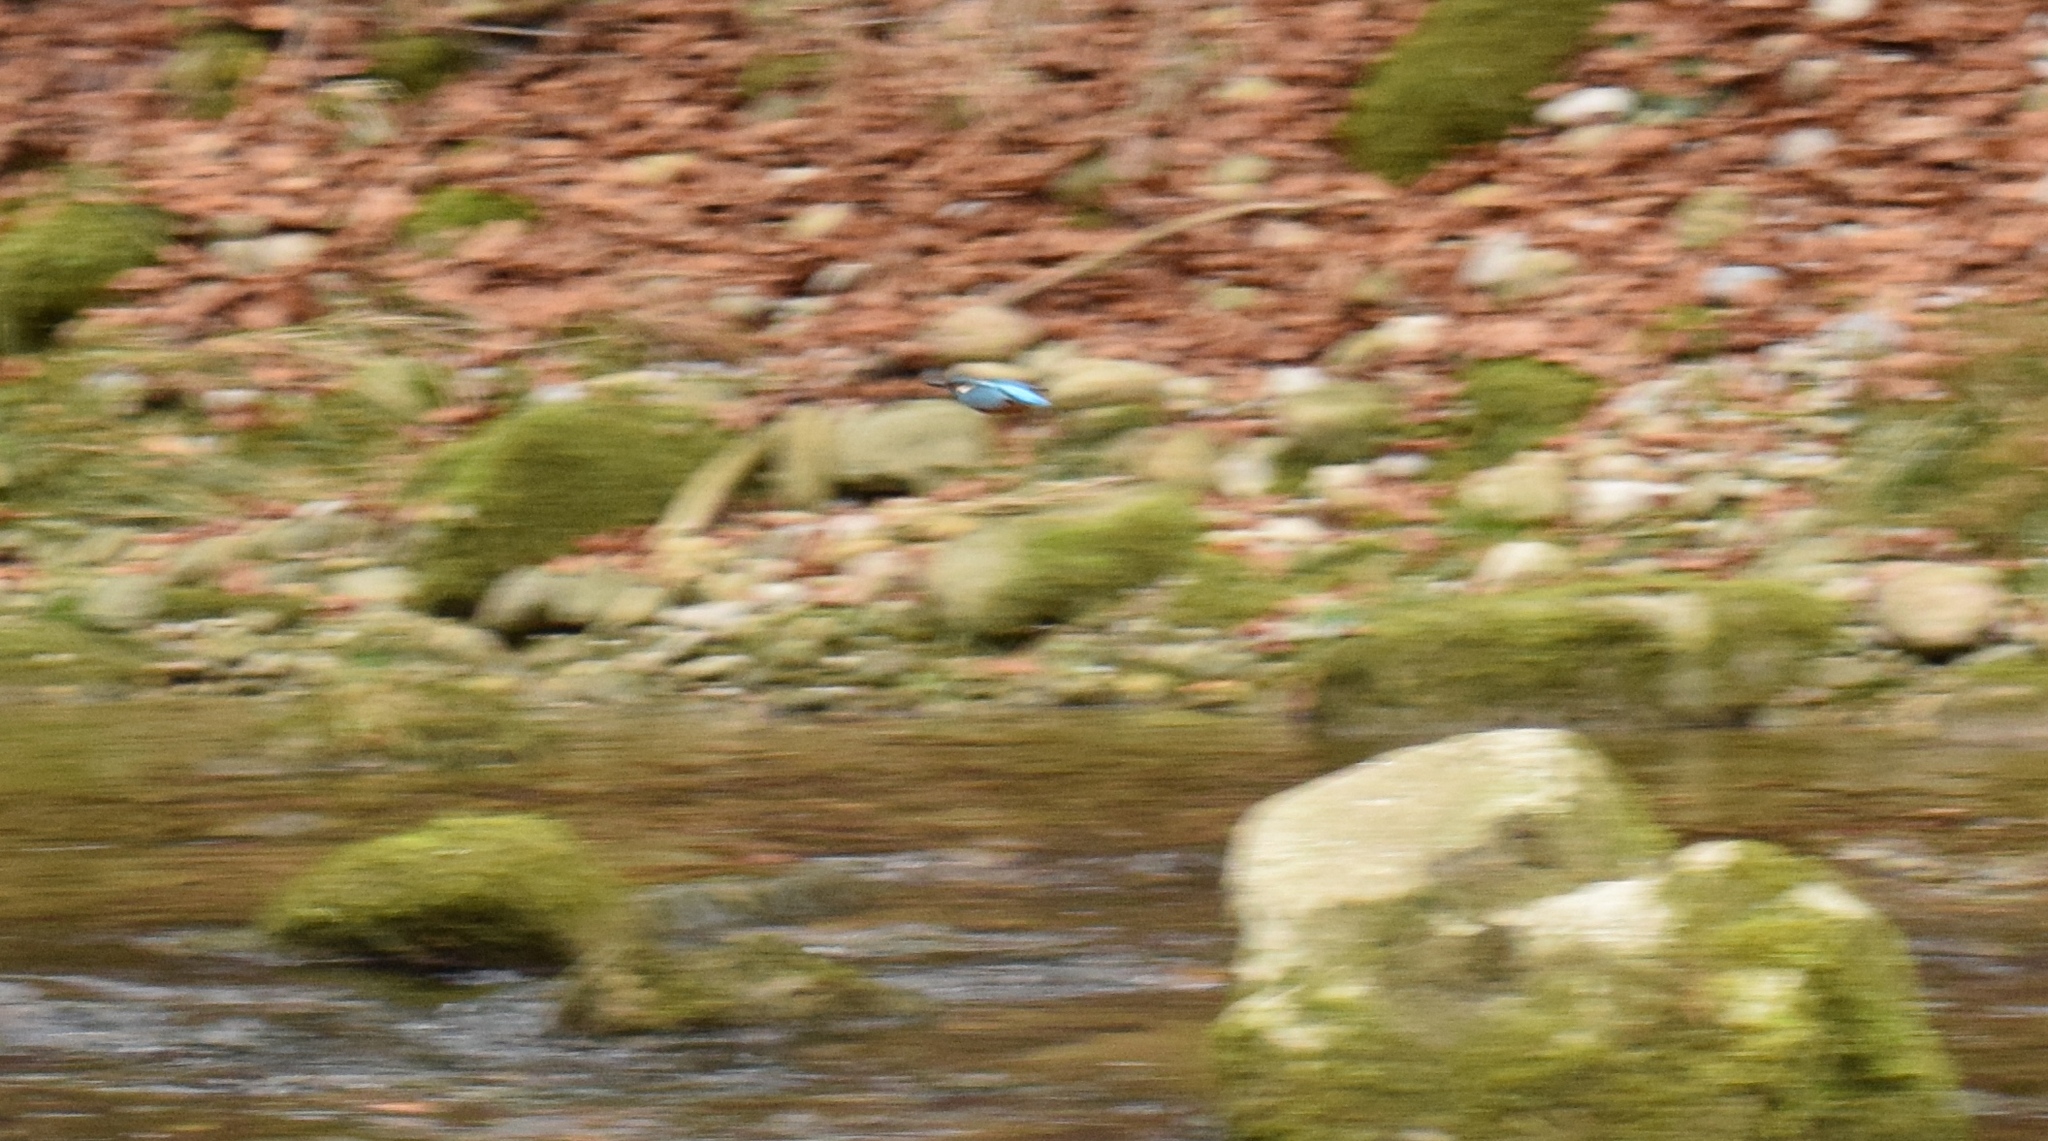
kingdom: Animalia
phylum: Chordata
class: Aves
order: Coraciiformes
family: Alcedinidae
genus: Alcedo
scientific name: Alcedo atthis
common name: Common kingfisher
